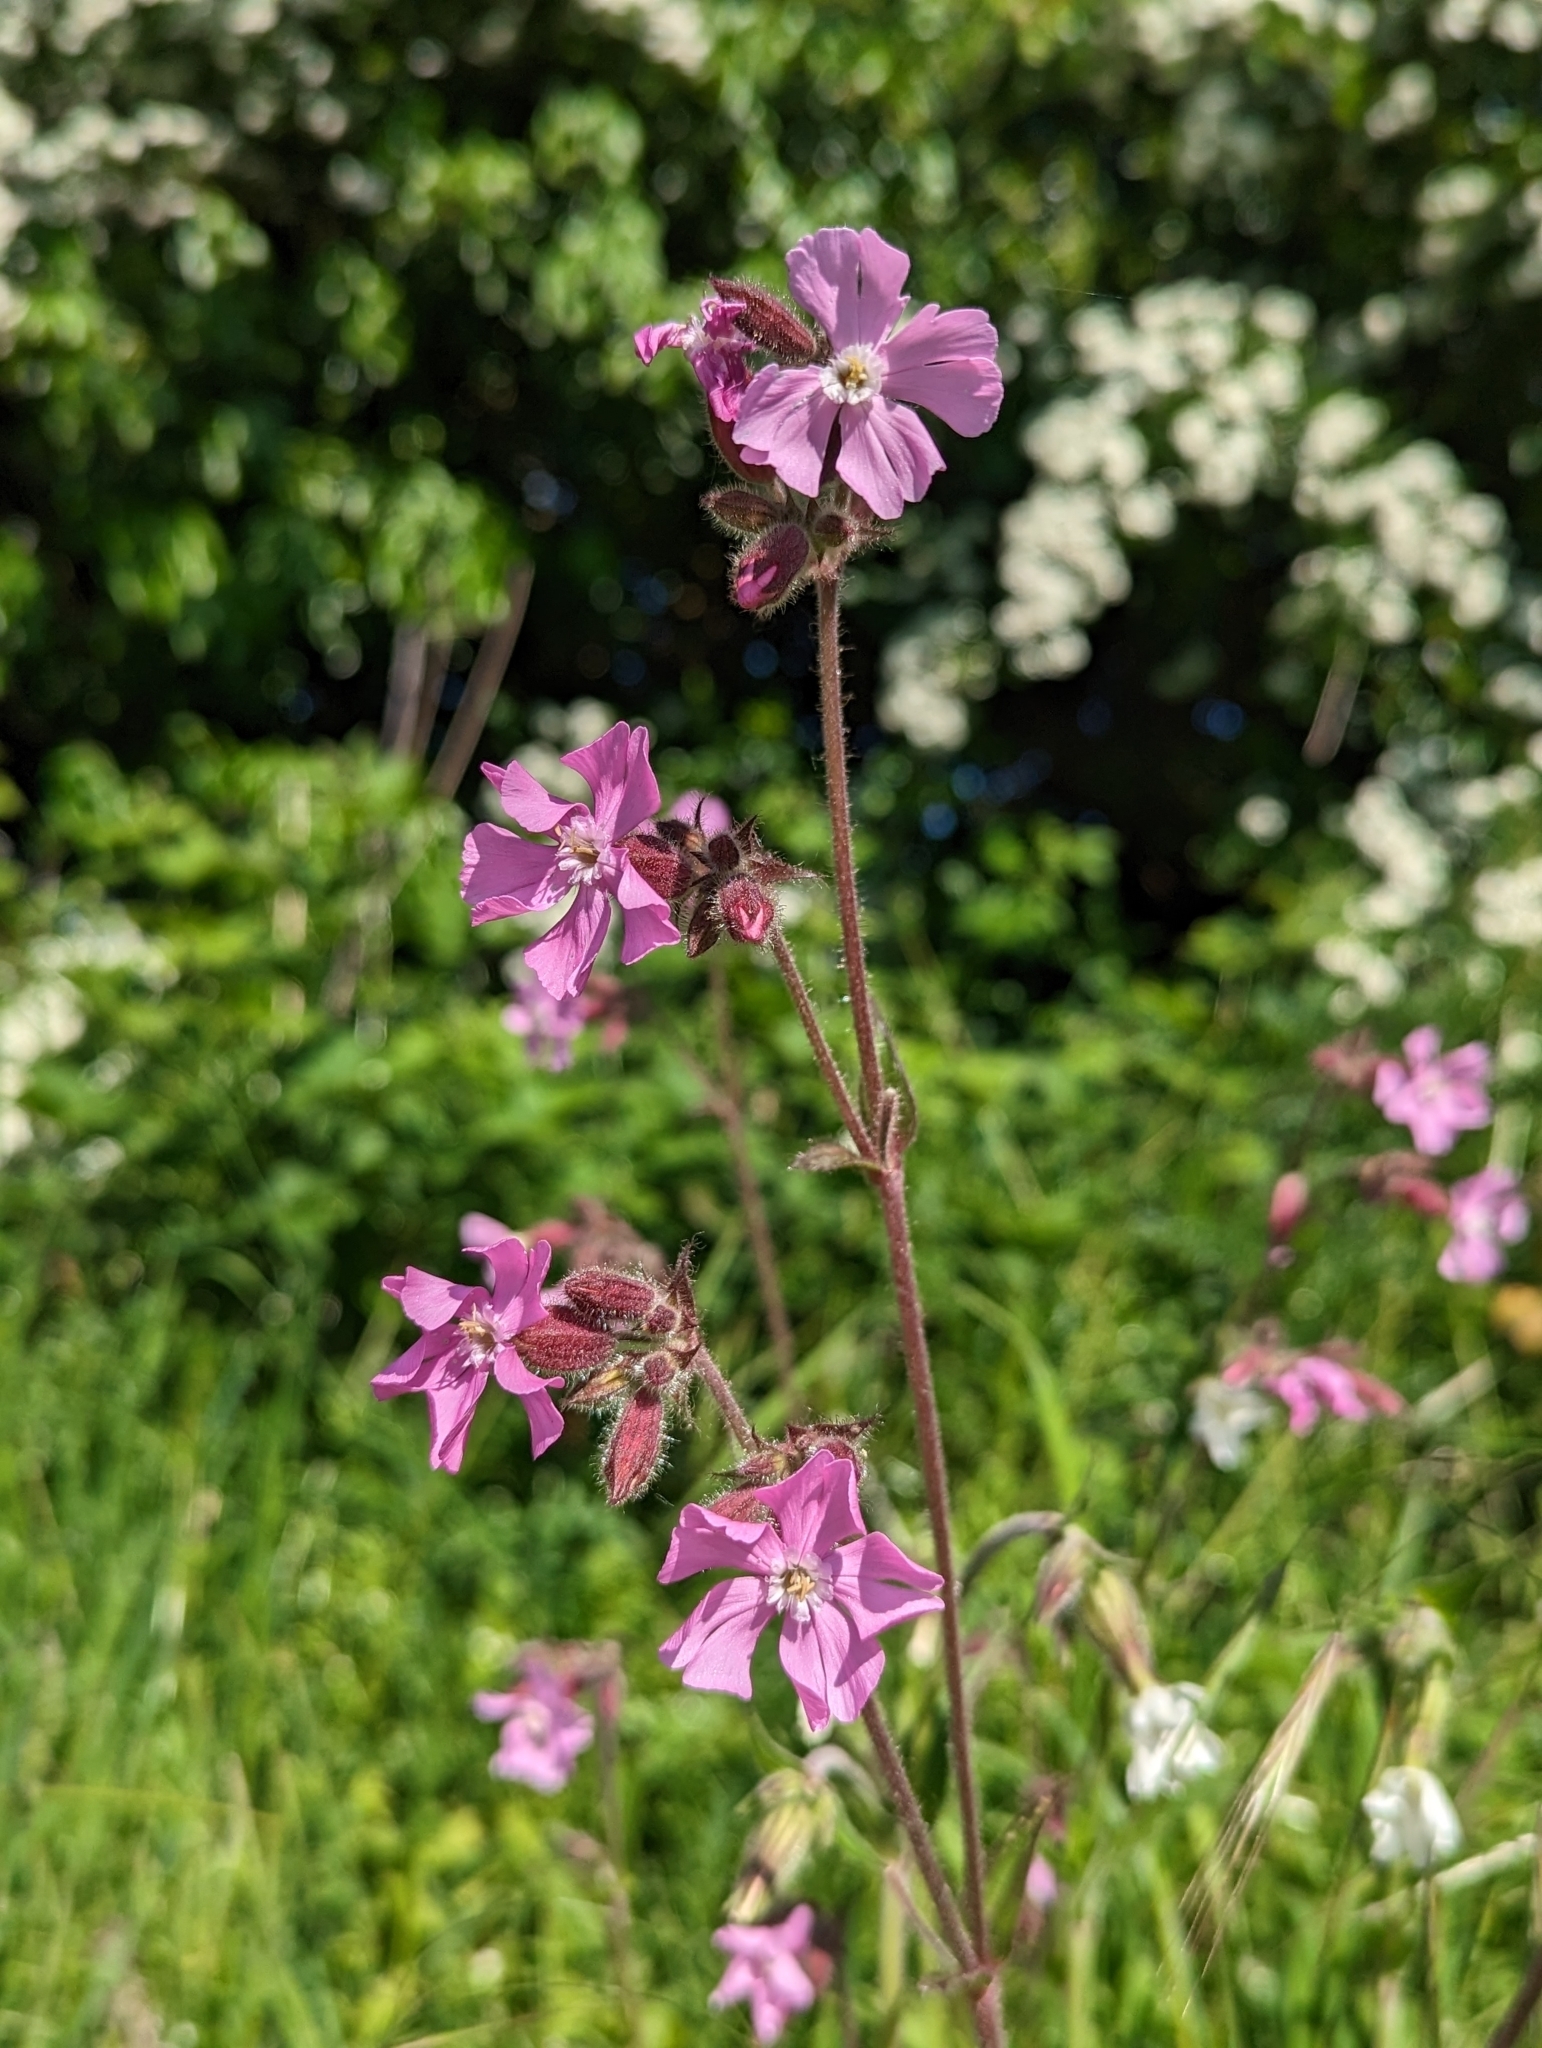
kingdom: Plantae
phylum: Tracheophyta
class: Magnoliopsida
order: Caryophyllales
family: Caryophyllaceae
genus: Silene
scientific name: Silene dioica
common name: Red campion
